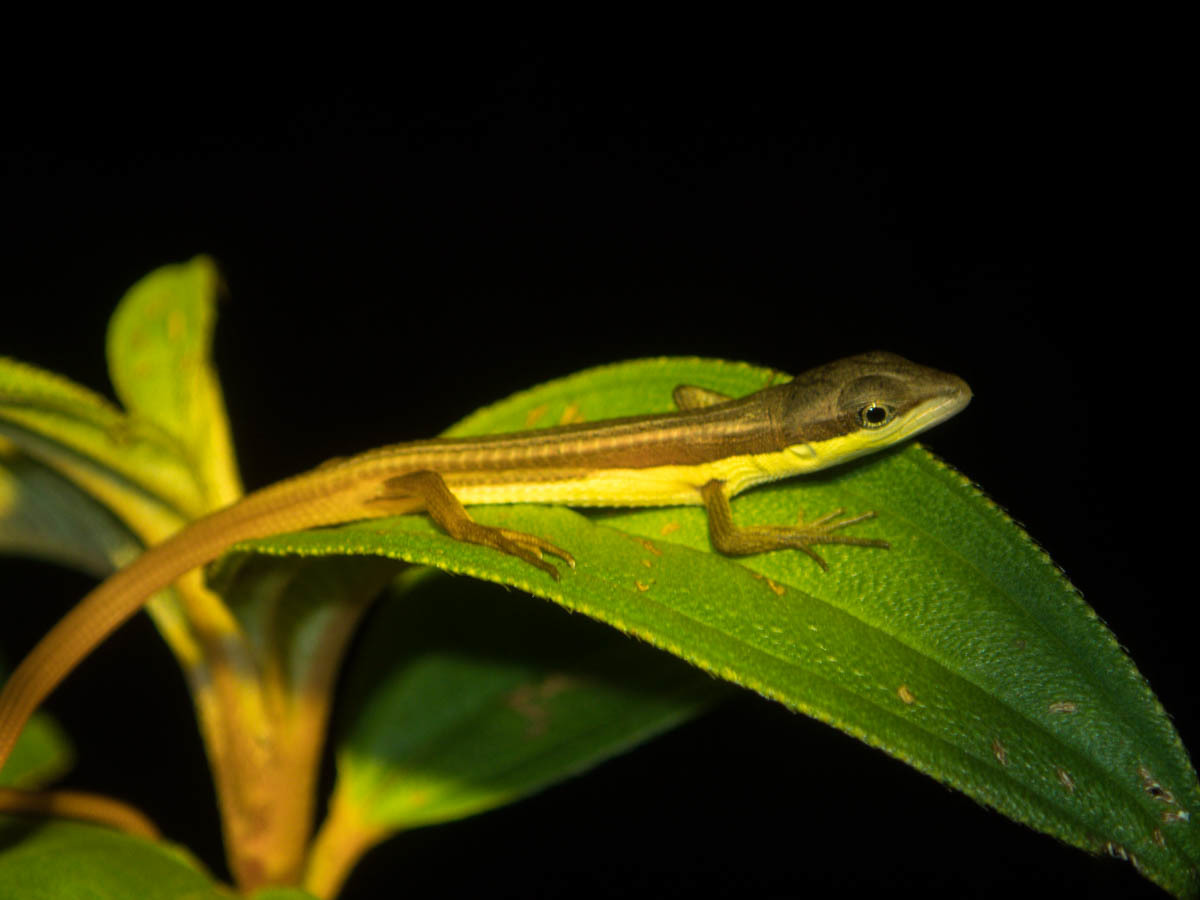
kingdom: Animalia
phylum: Chordata
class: Squamata
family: Lacertidae
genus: Takydromus
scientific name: Takydromus sexlineatus
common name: Asian grass lizard
